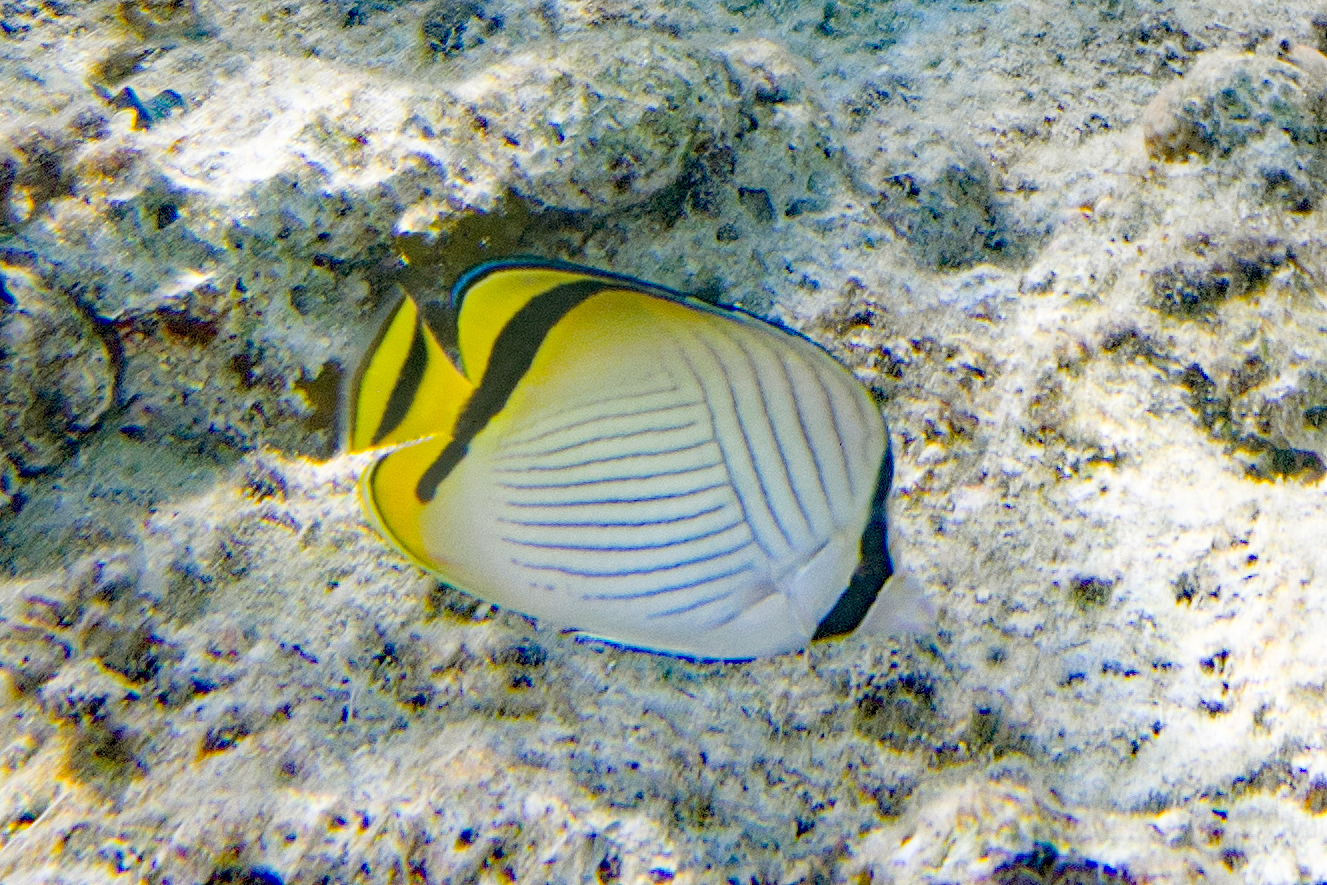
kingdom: Animalia
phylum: Chordata
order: Perciformes
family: Chaetodontidae
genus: Chaetodon
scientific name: Chaetodon vagabundus
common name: Vagabond butterflyfish
